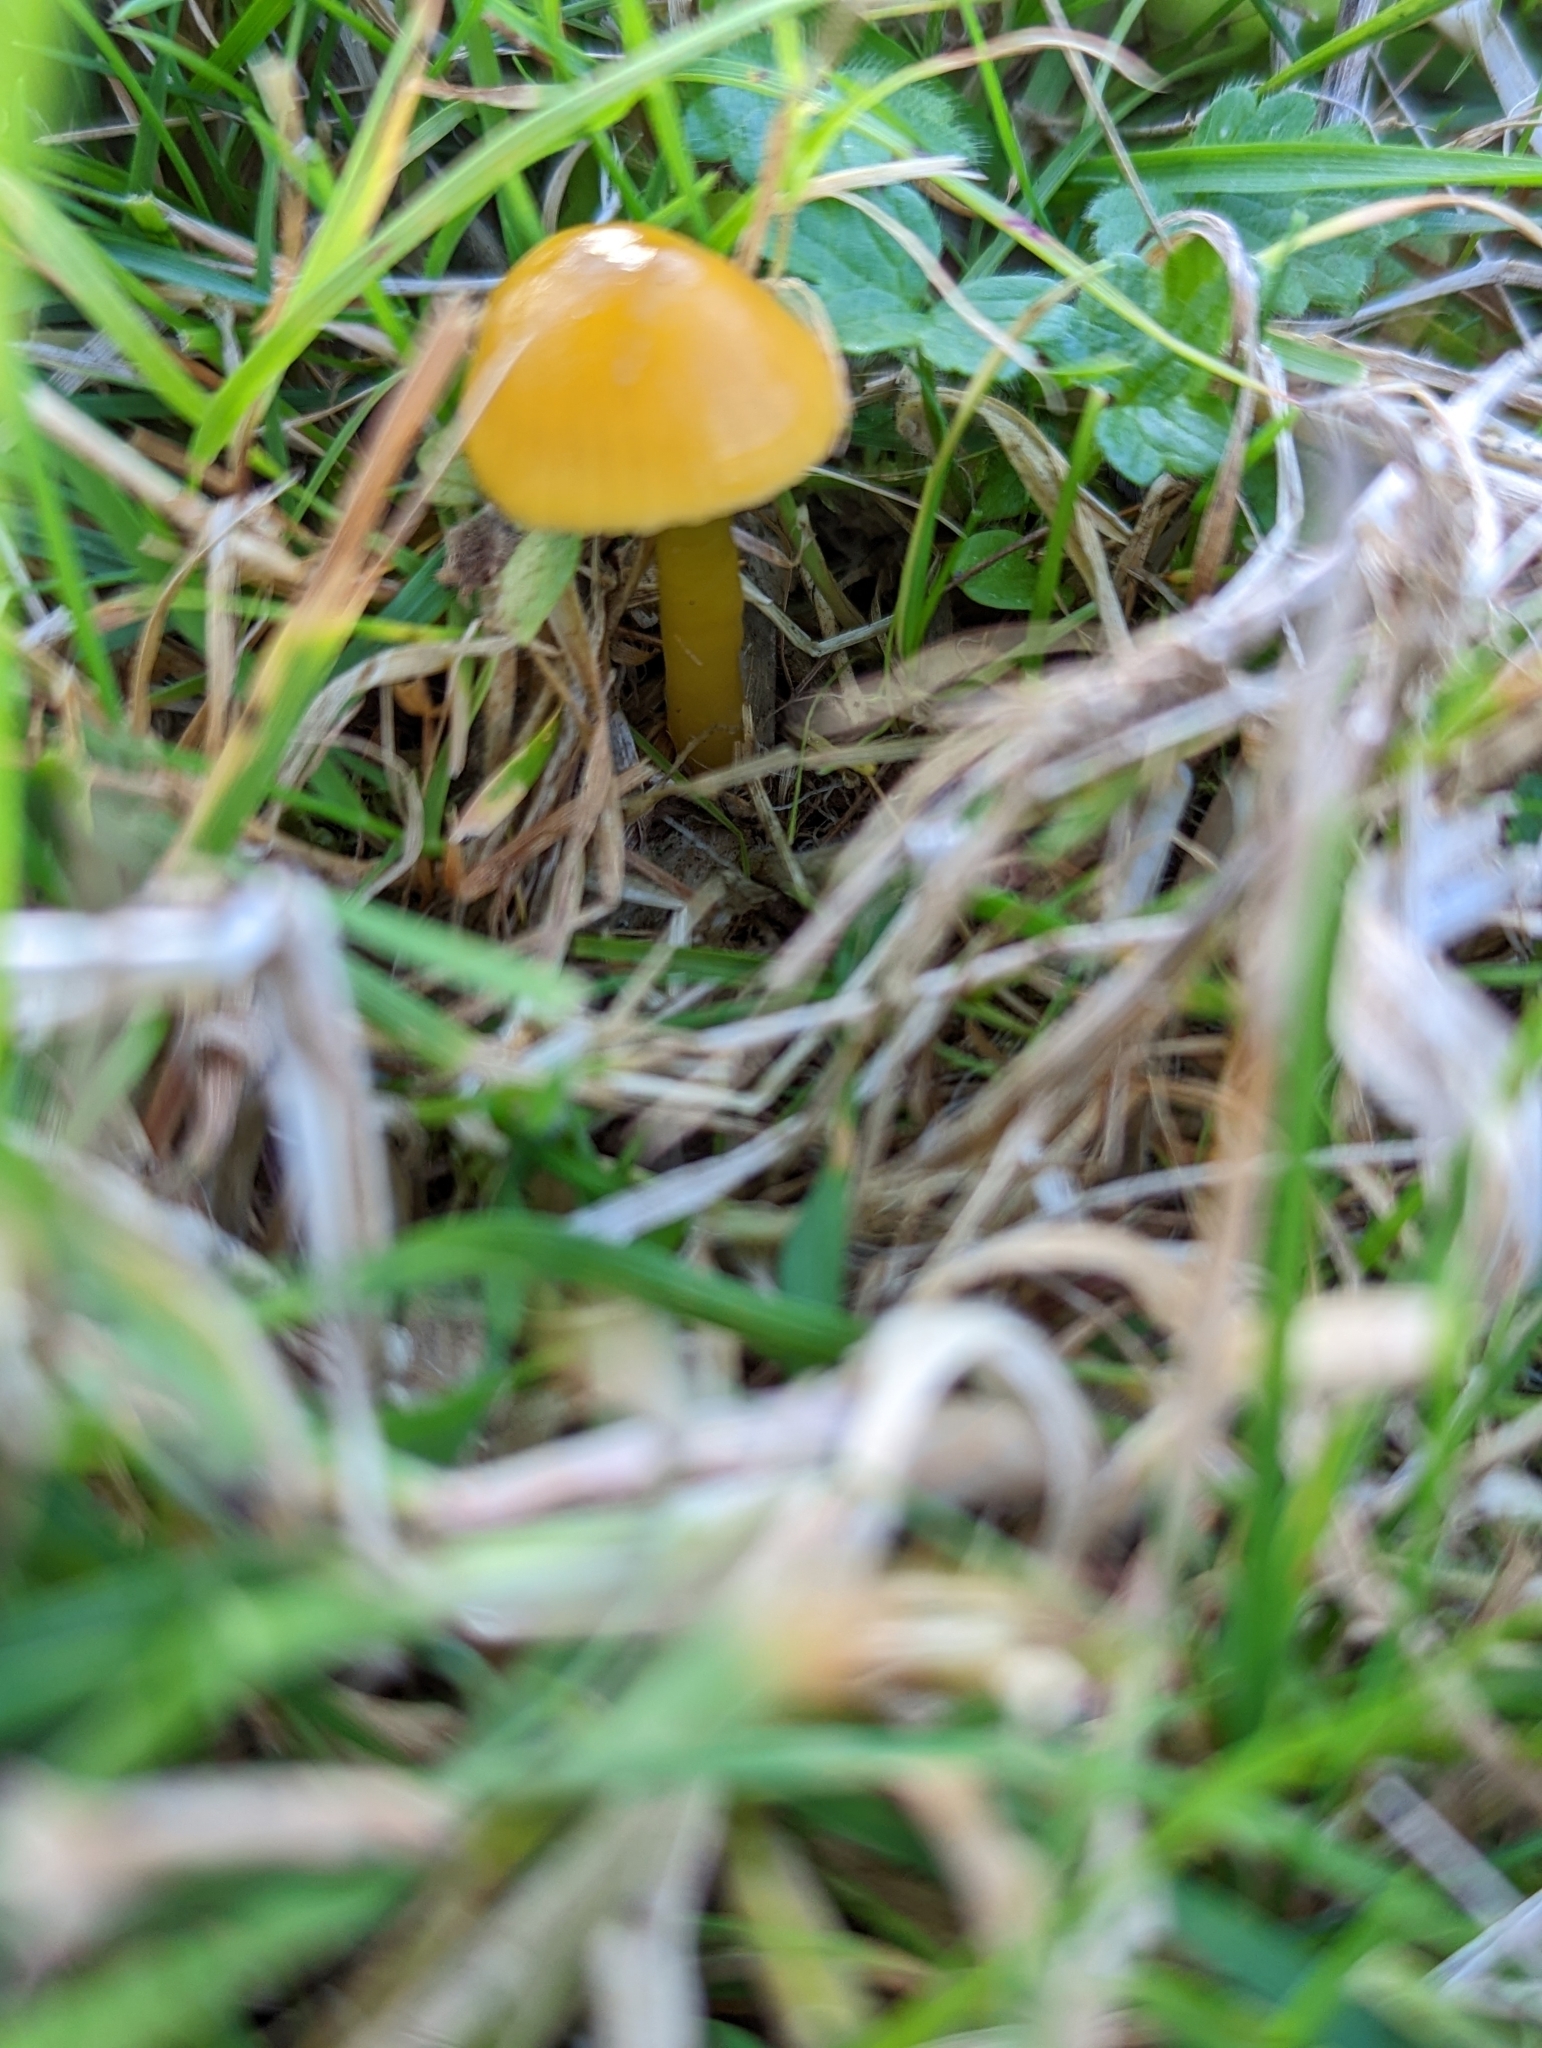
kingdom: Fungi
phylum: Basidiomycota
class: Agaricomycetes
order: Agaricales
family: Hygrophoraceae
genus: Gliophorus
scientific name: Gliophorus psittacinus
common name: Parrot wax-cap
